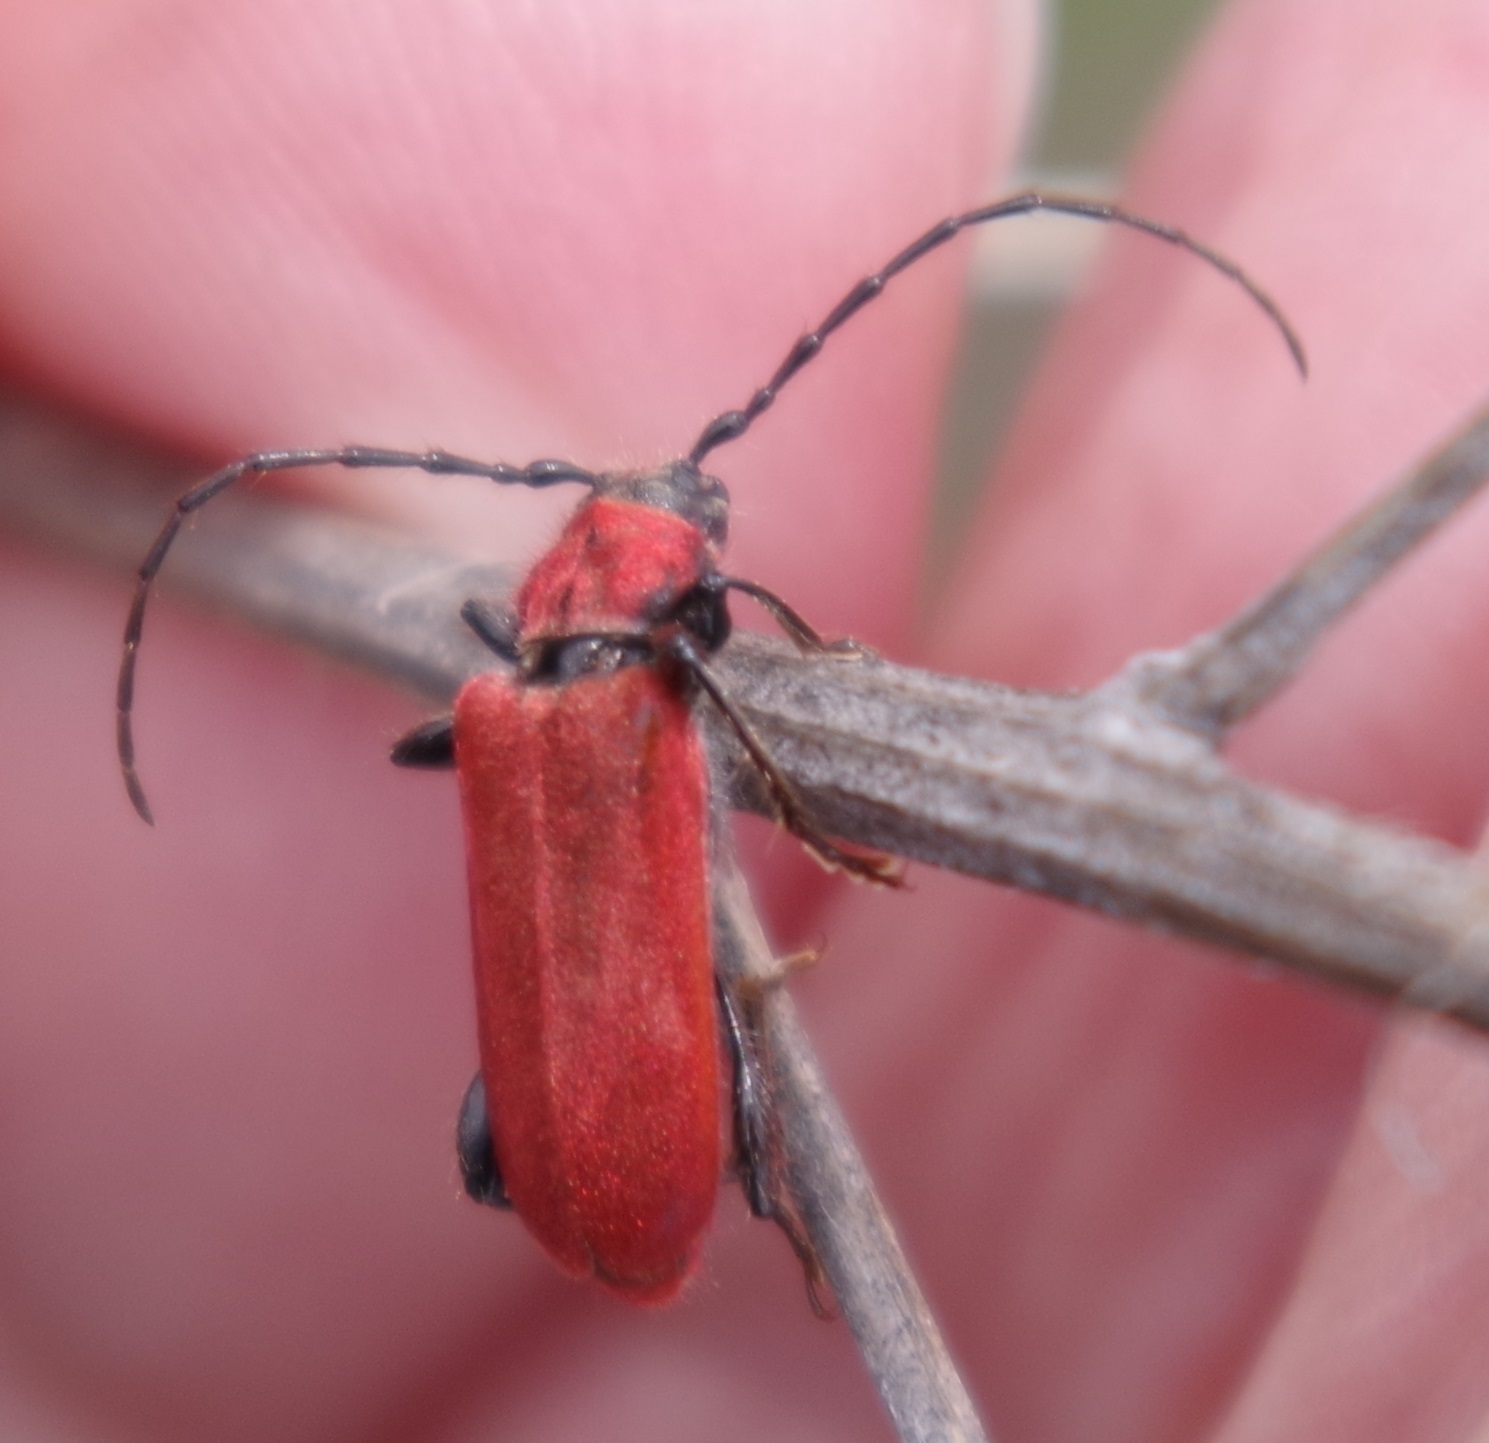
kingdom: Animalia
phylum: Arthropoda
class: Insecta
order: Coleoptera
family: Cerambycidae
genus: Pyrrhidium
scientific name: Pyrrhidium sanguineum
